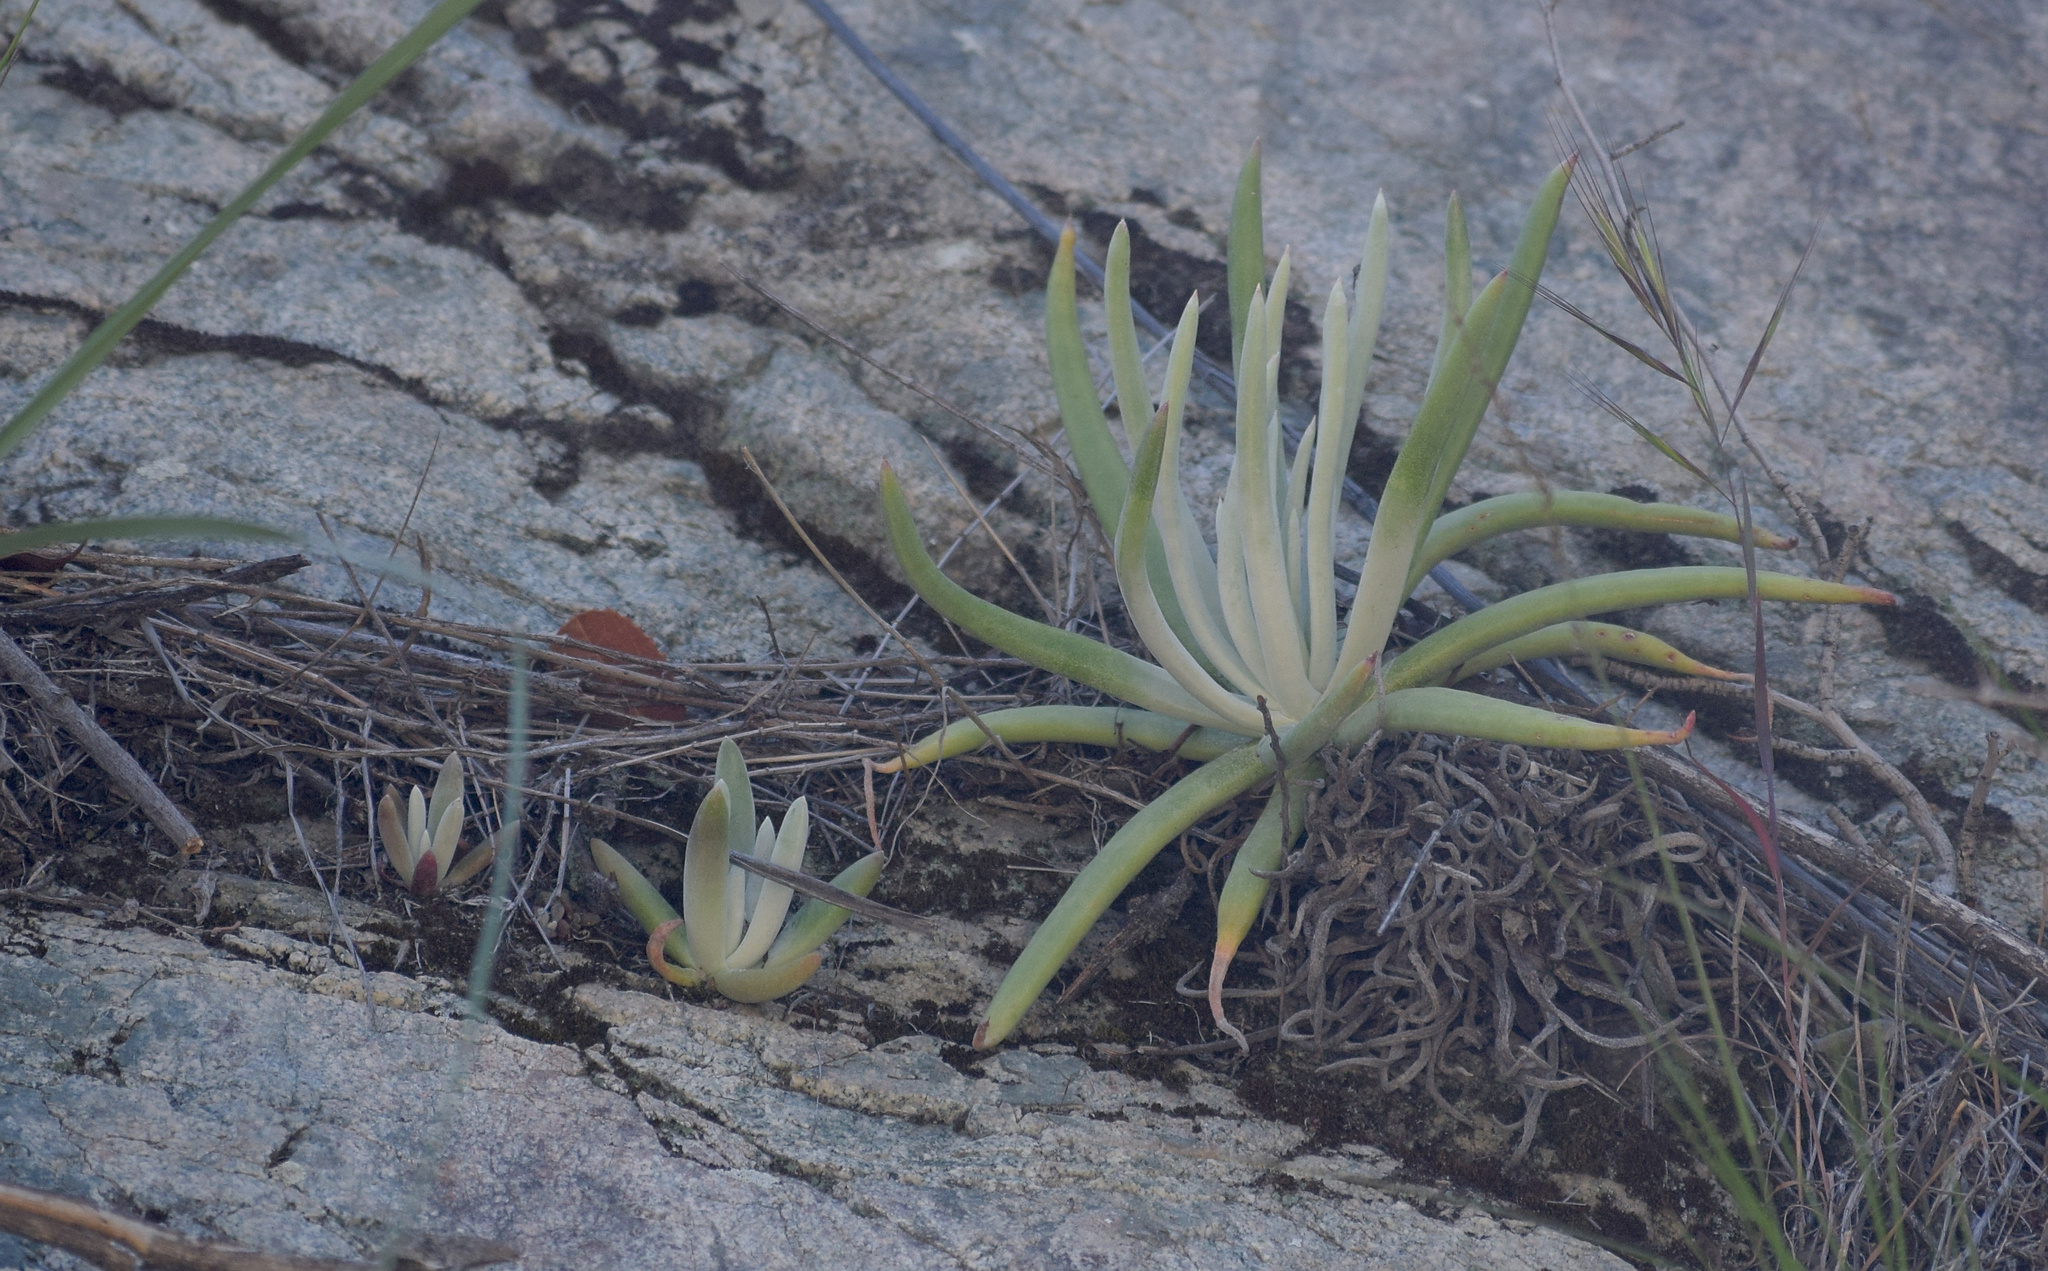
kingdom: Plantae
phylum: Tracheophyta
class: Magnoliopsida
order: Saxifragales
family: Crassulaceae
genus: Dudleya
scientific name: Dudleya densiflora
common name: San gabriel mountains dudleya
